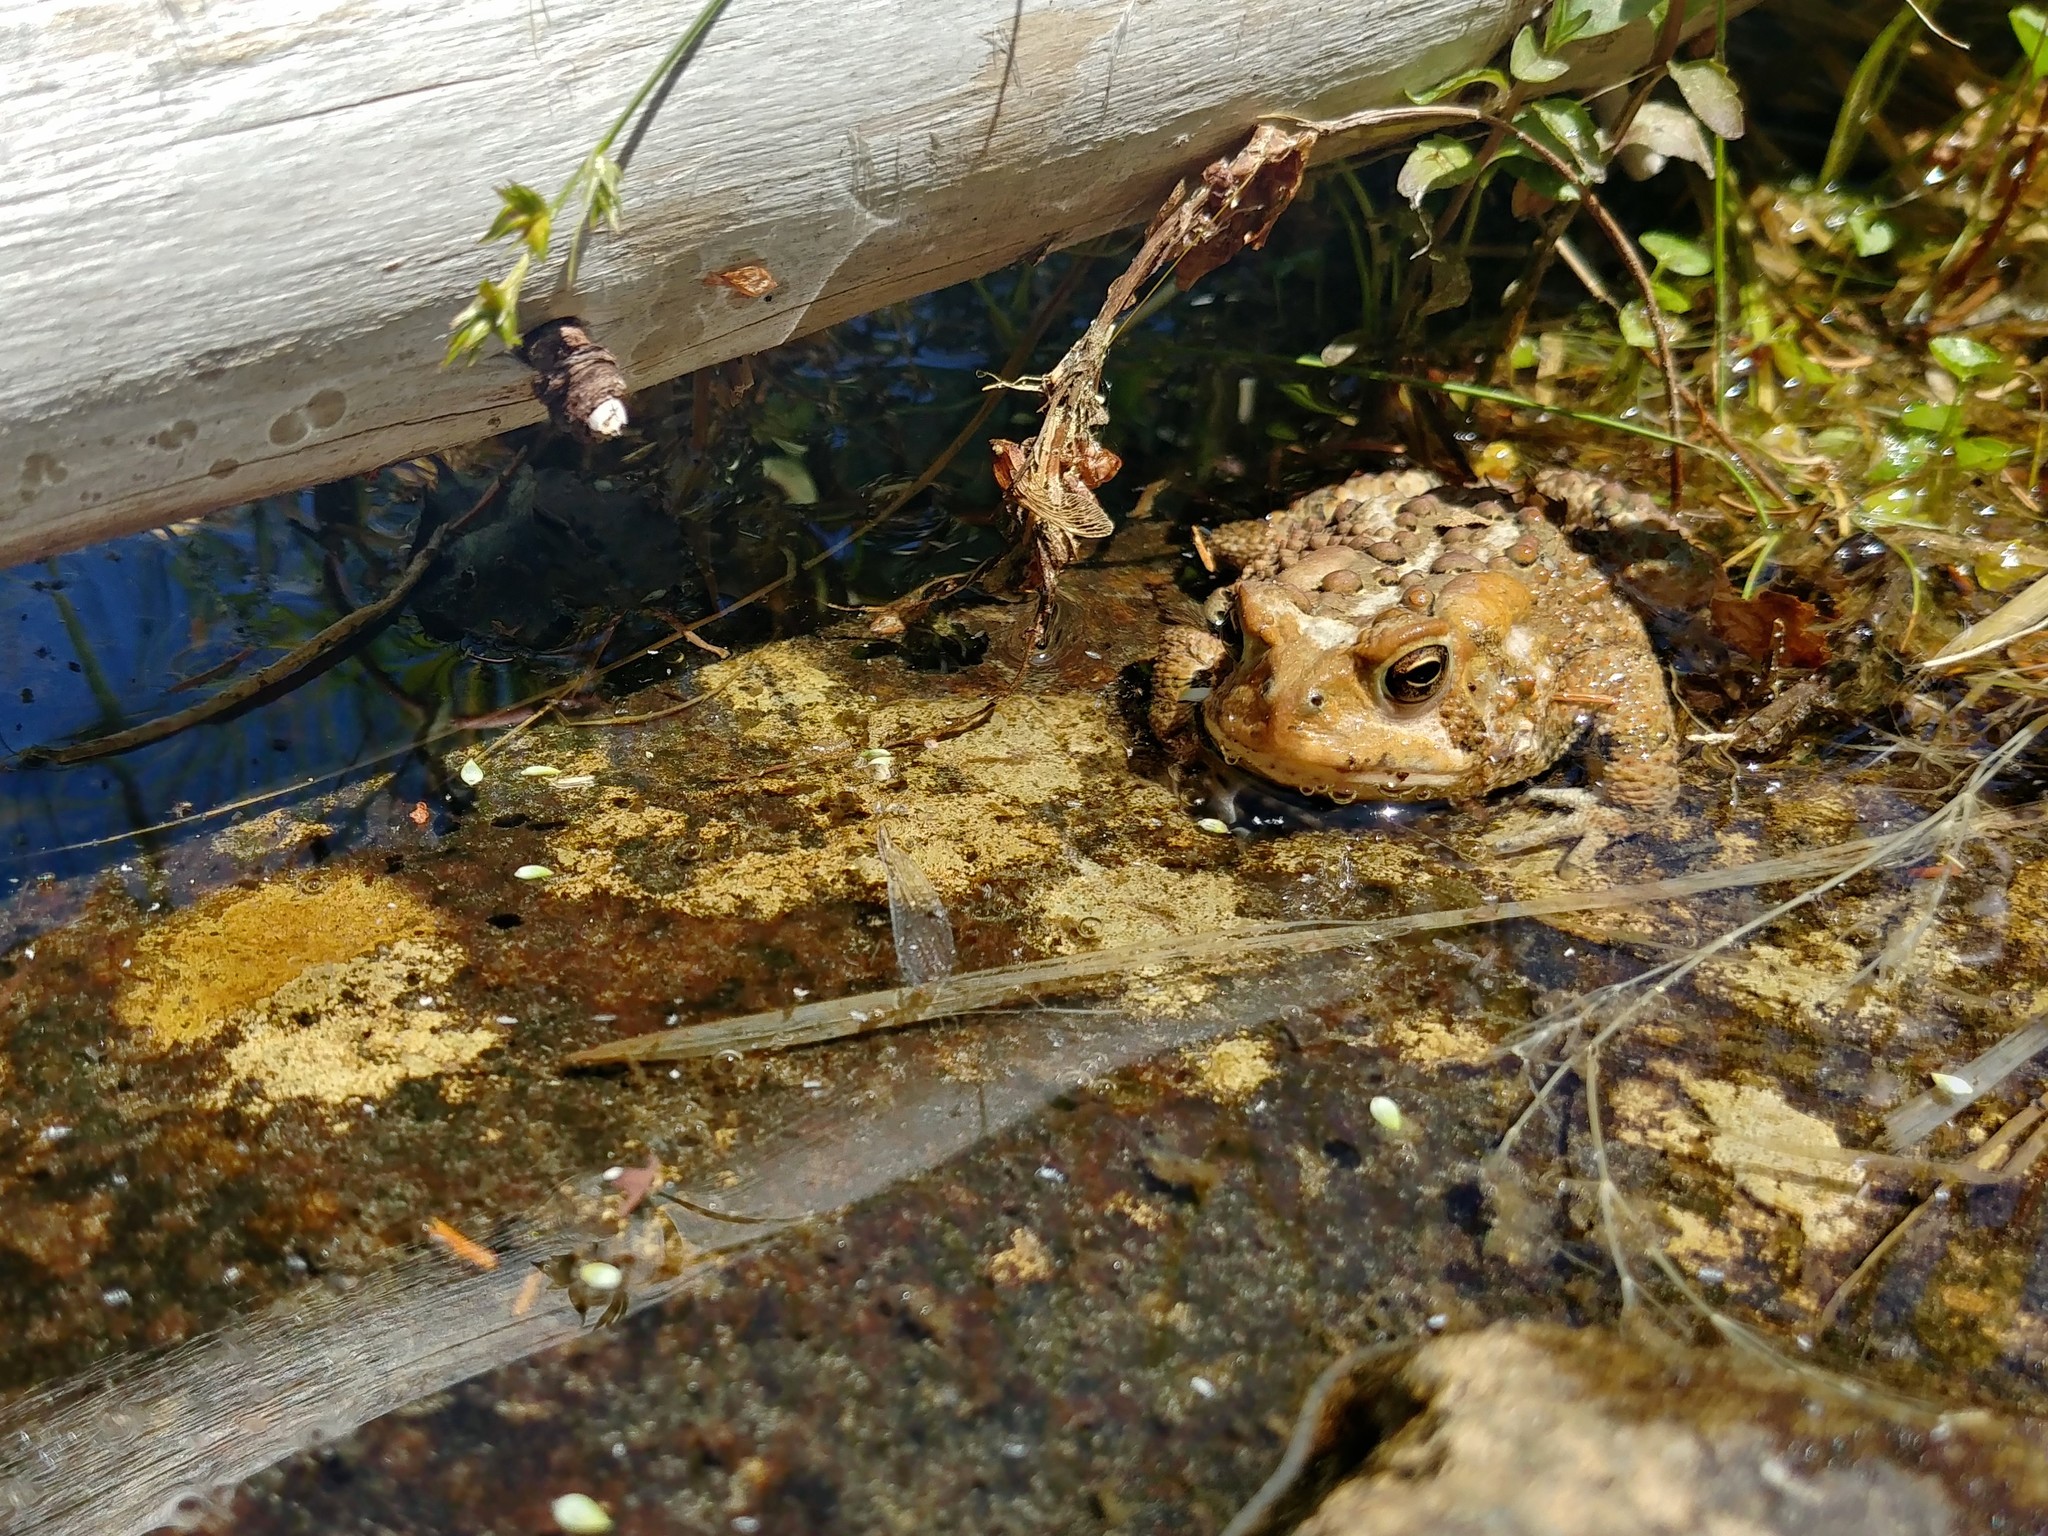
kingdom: Animalia
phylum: Chordata
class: Amphibia
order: Anura
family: Bufonidae
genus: Anaxyrus
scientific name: Anaxyrus americanus
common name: American toad
